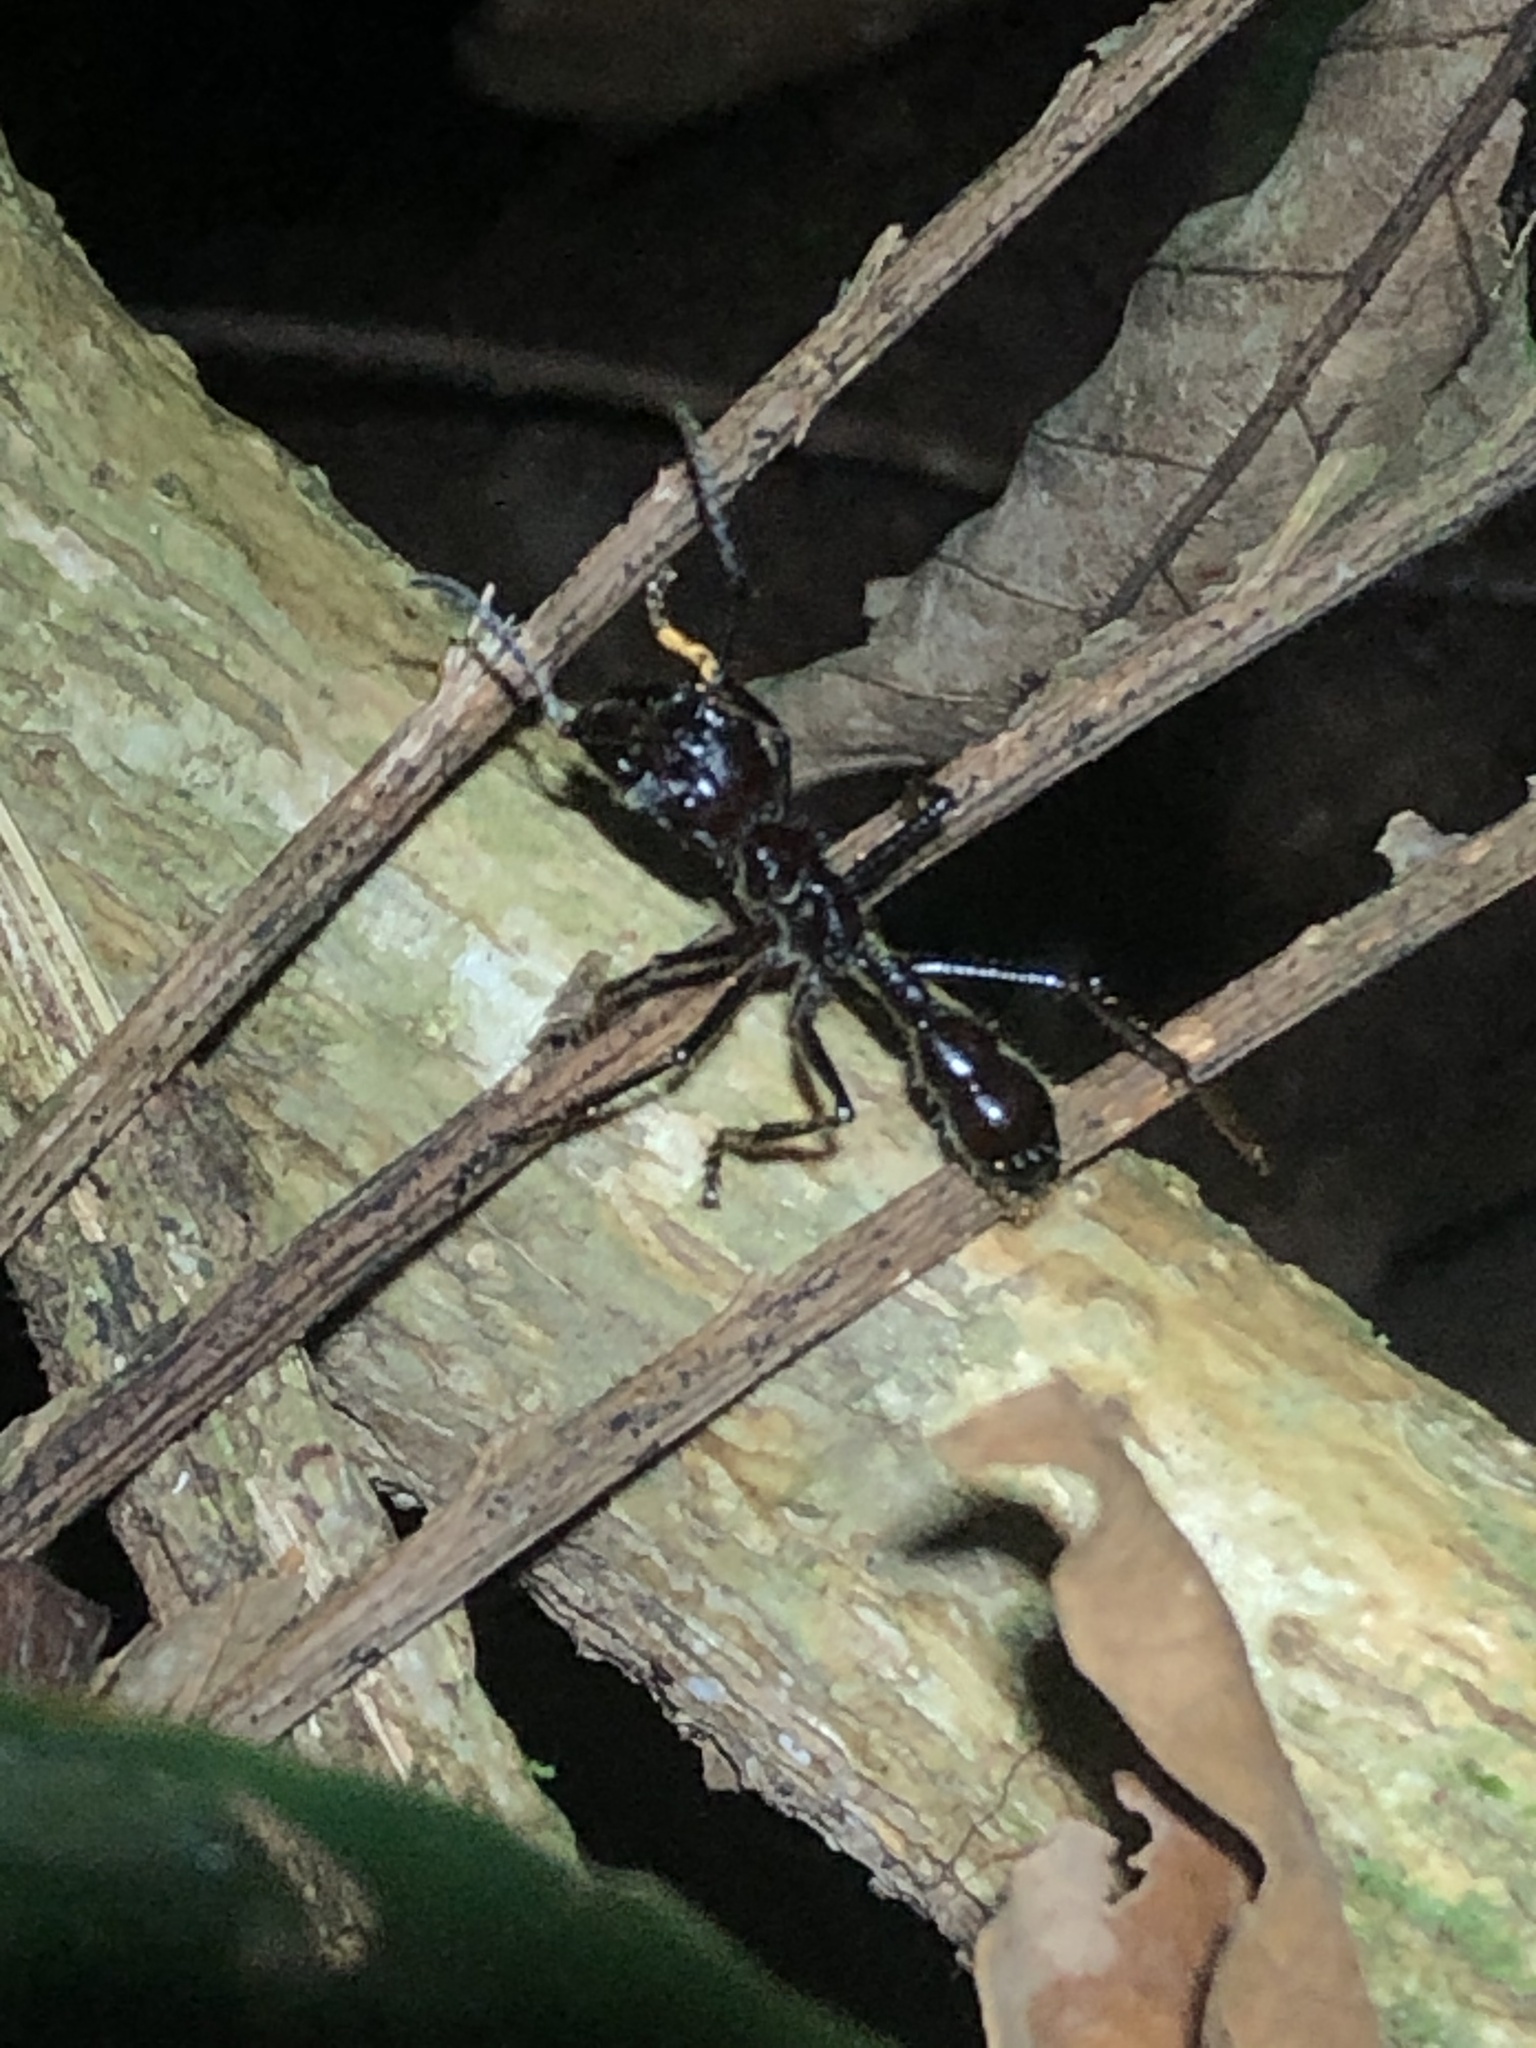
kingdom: Animalia
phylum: Arthropoda
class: Insecta
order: Hymenoptera
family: Formicidae
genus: Paraponera
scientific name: Paraponera clavata
